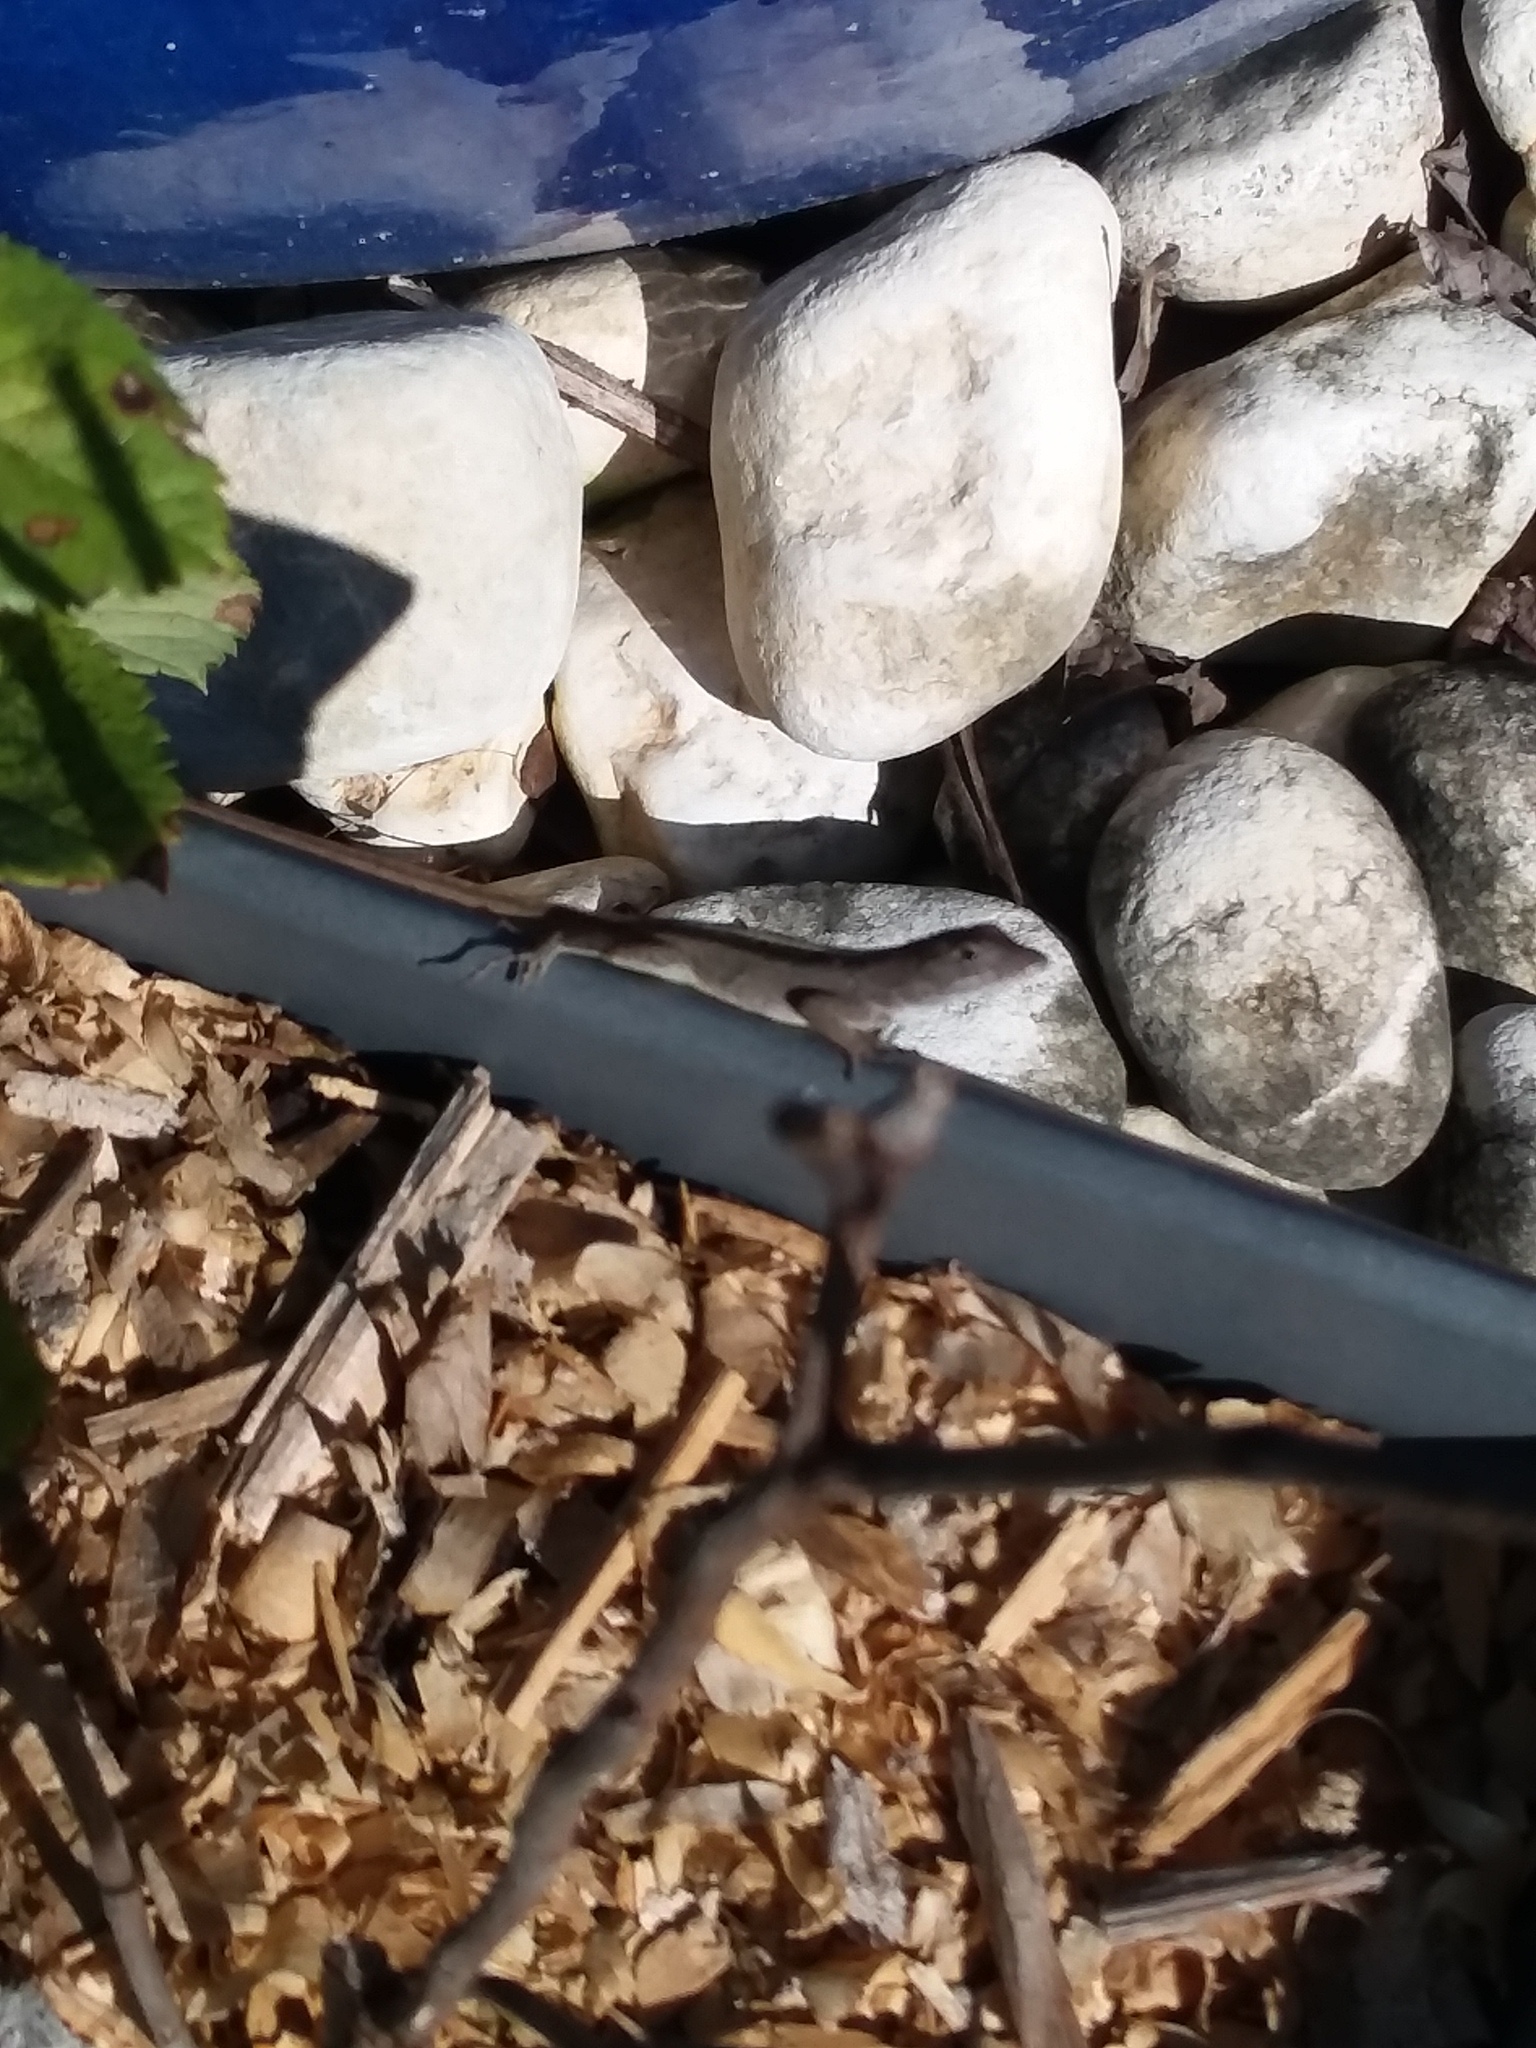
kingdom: Animalia
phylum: Chordata
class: Squamata
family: Dactyloidae
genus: Anolis
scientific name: Anolis sagrei
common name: Brown anole
